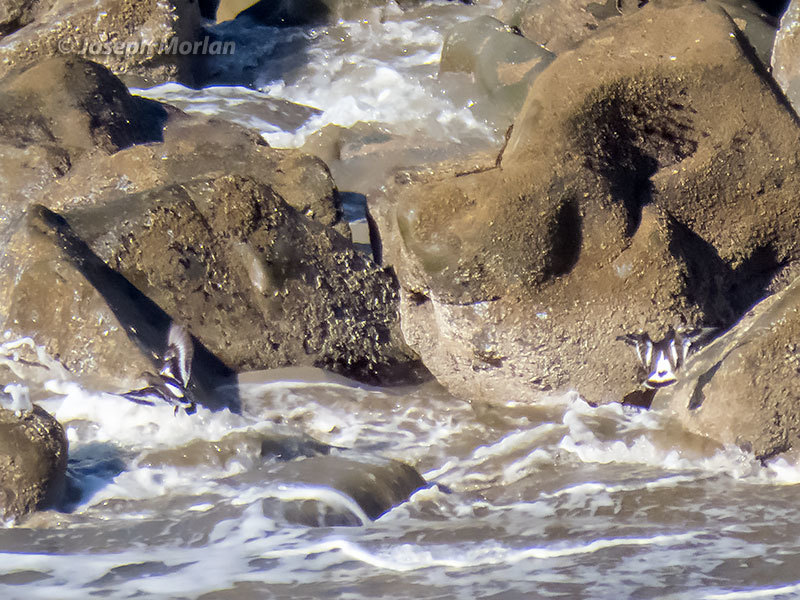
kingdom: Animalia
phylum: Chordata
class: Aves
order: Charadriiformes
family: Scolopacidae
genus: Arenaria
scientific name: Arenaria melanocephala
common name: Black turnstone
